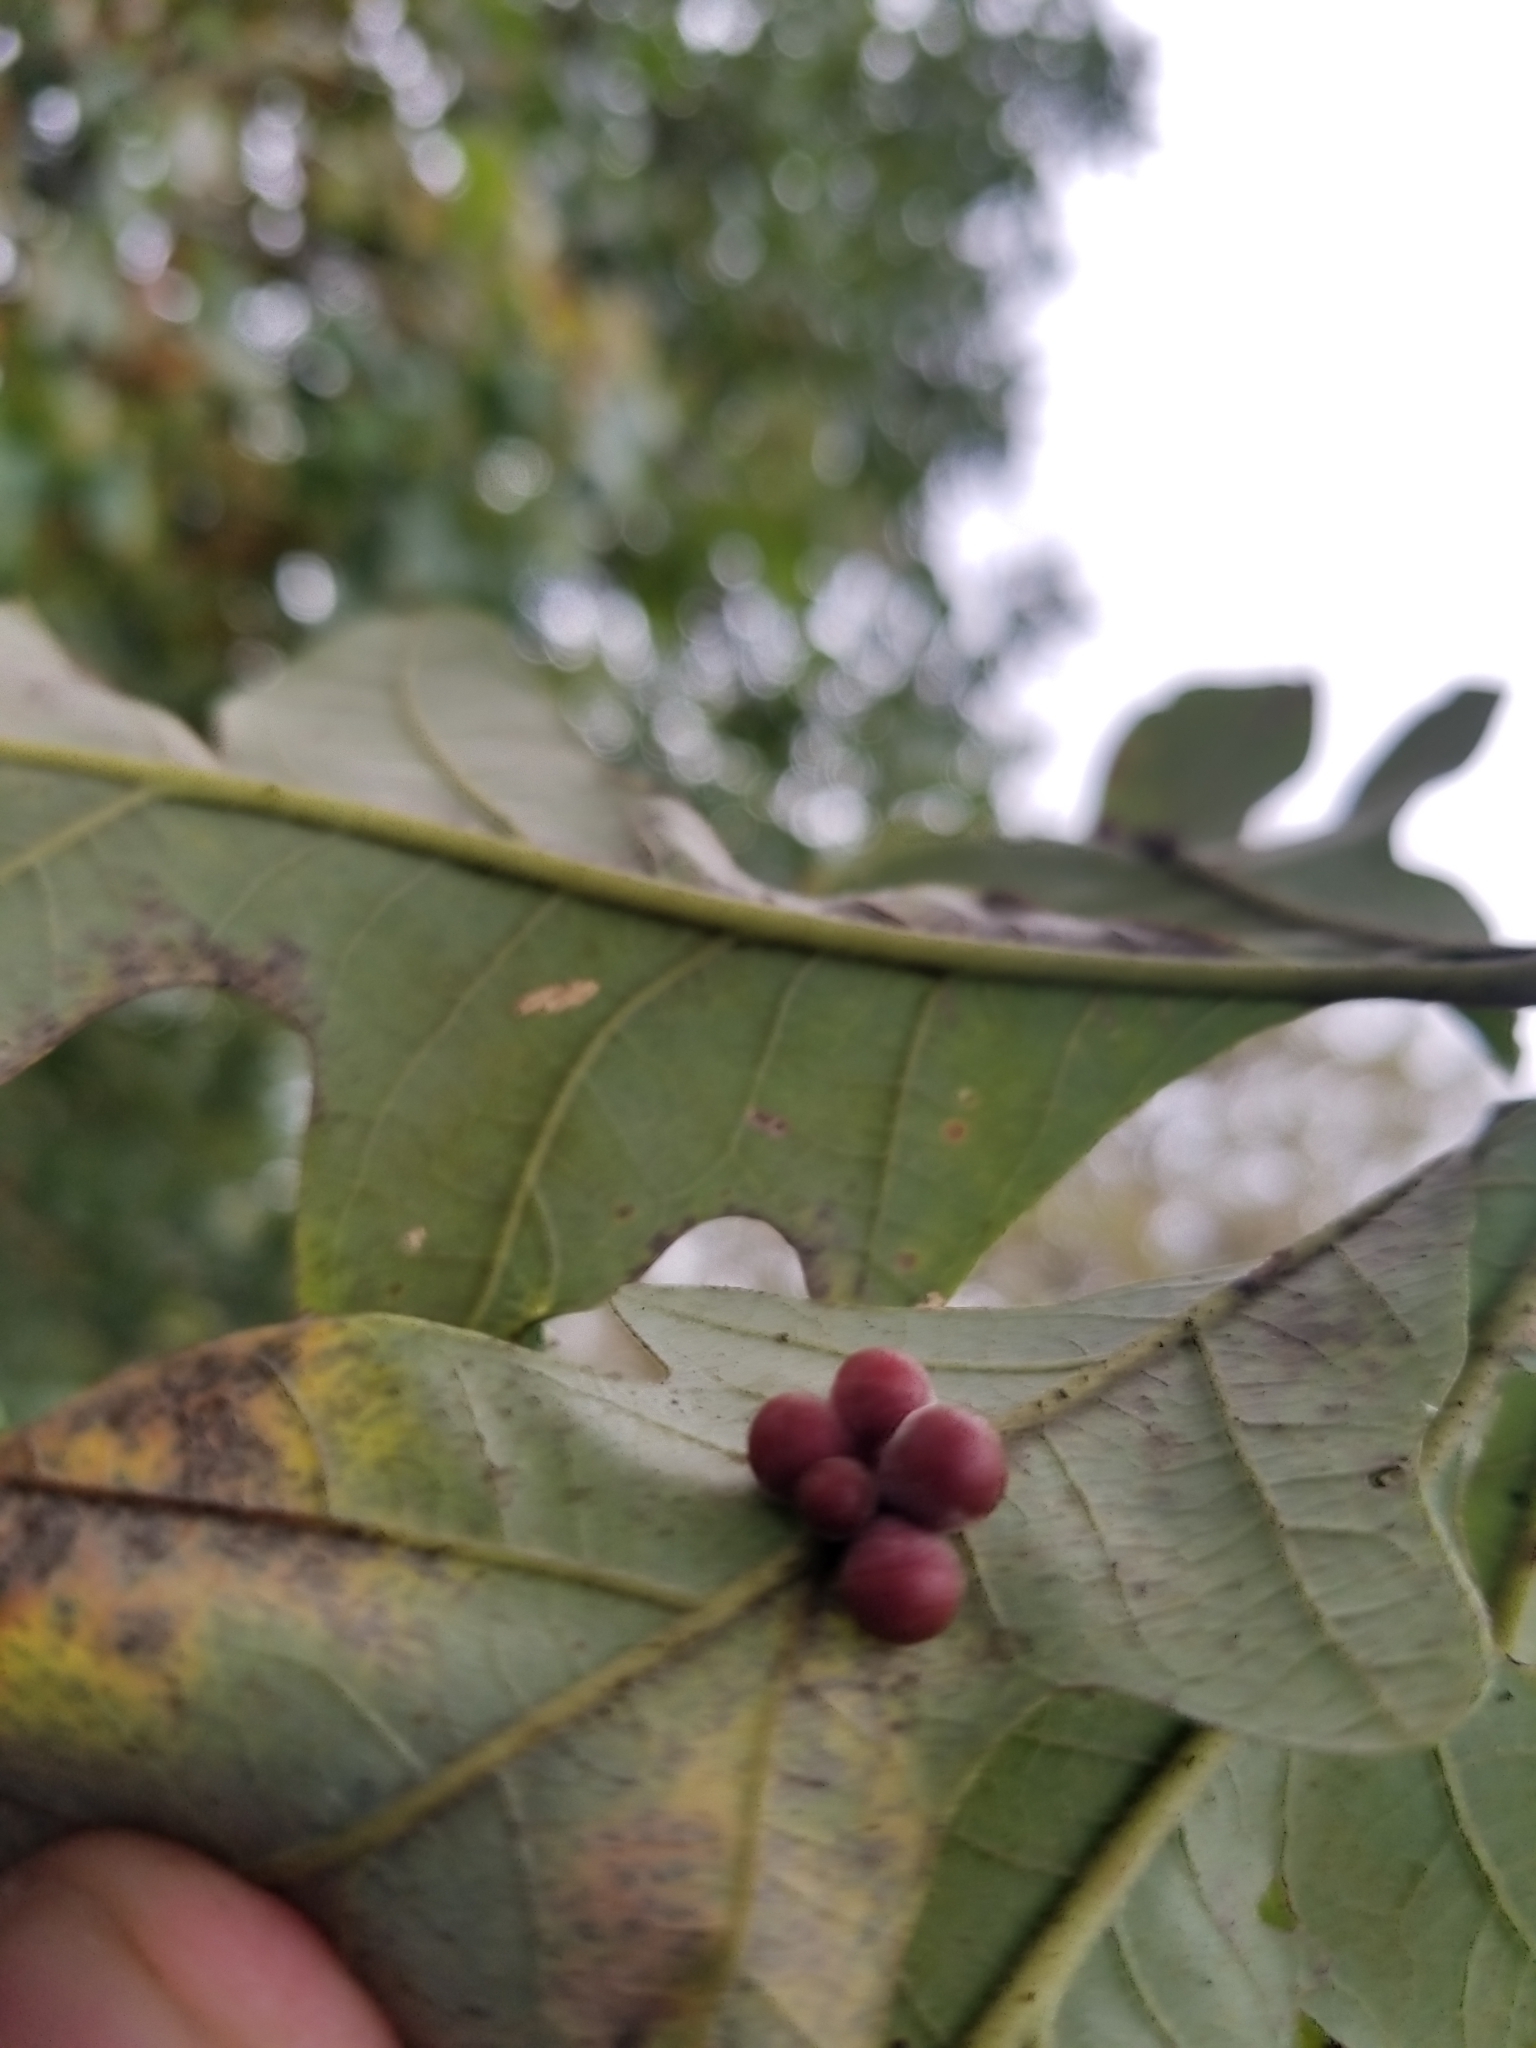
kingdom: Animalia
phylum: Arthropoda
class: Insecta
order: Hymenoptera
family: Cynipidae
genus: Andricus
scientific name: Andricus
